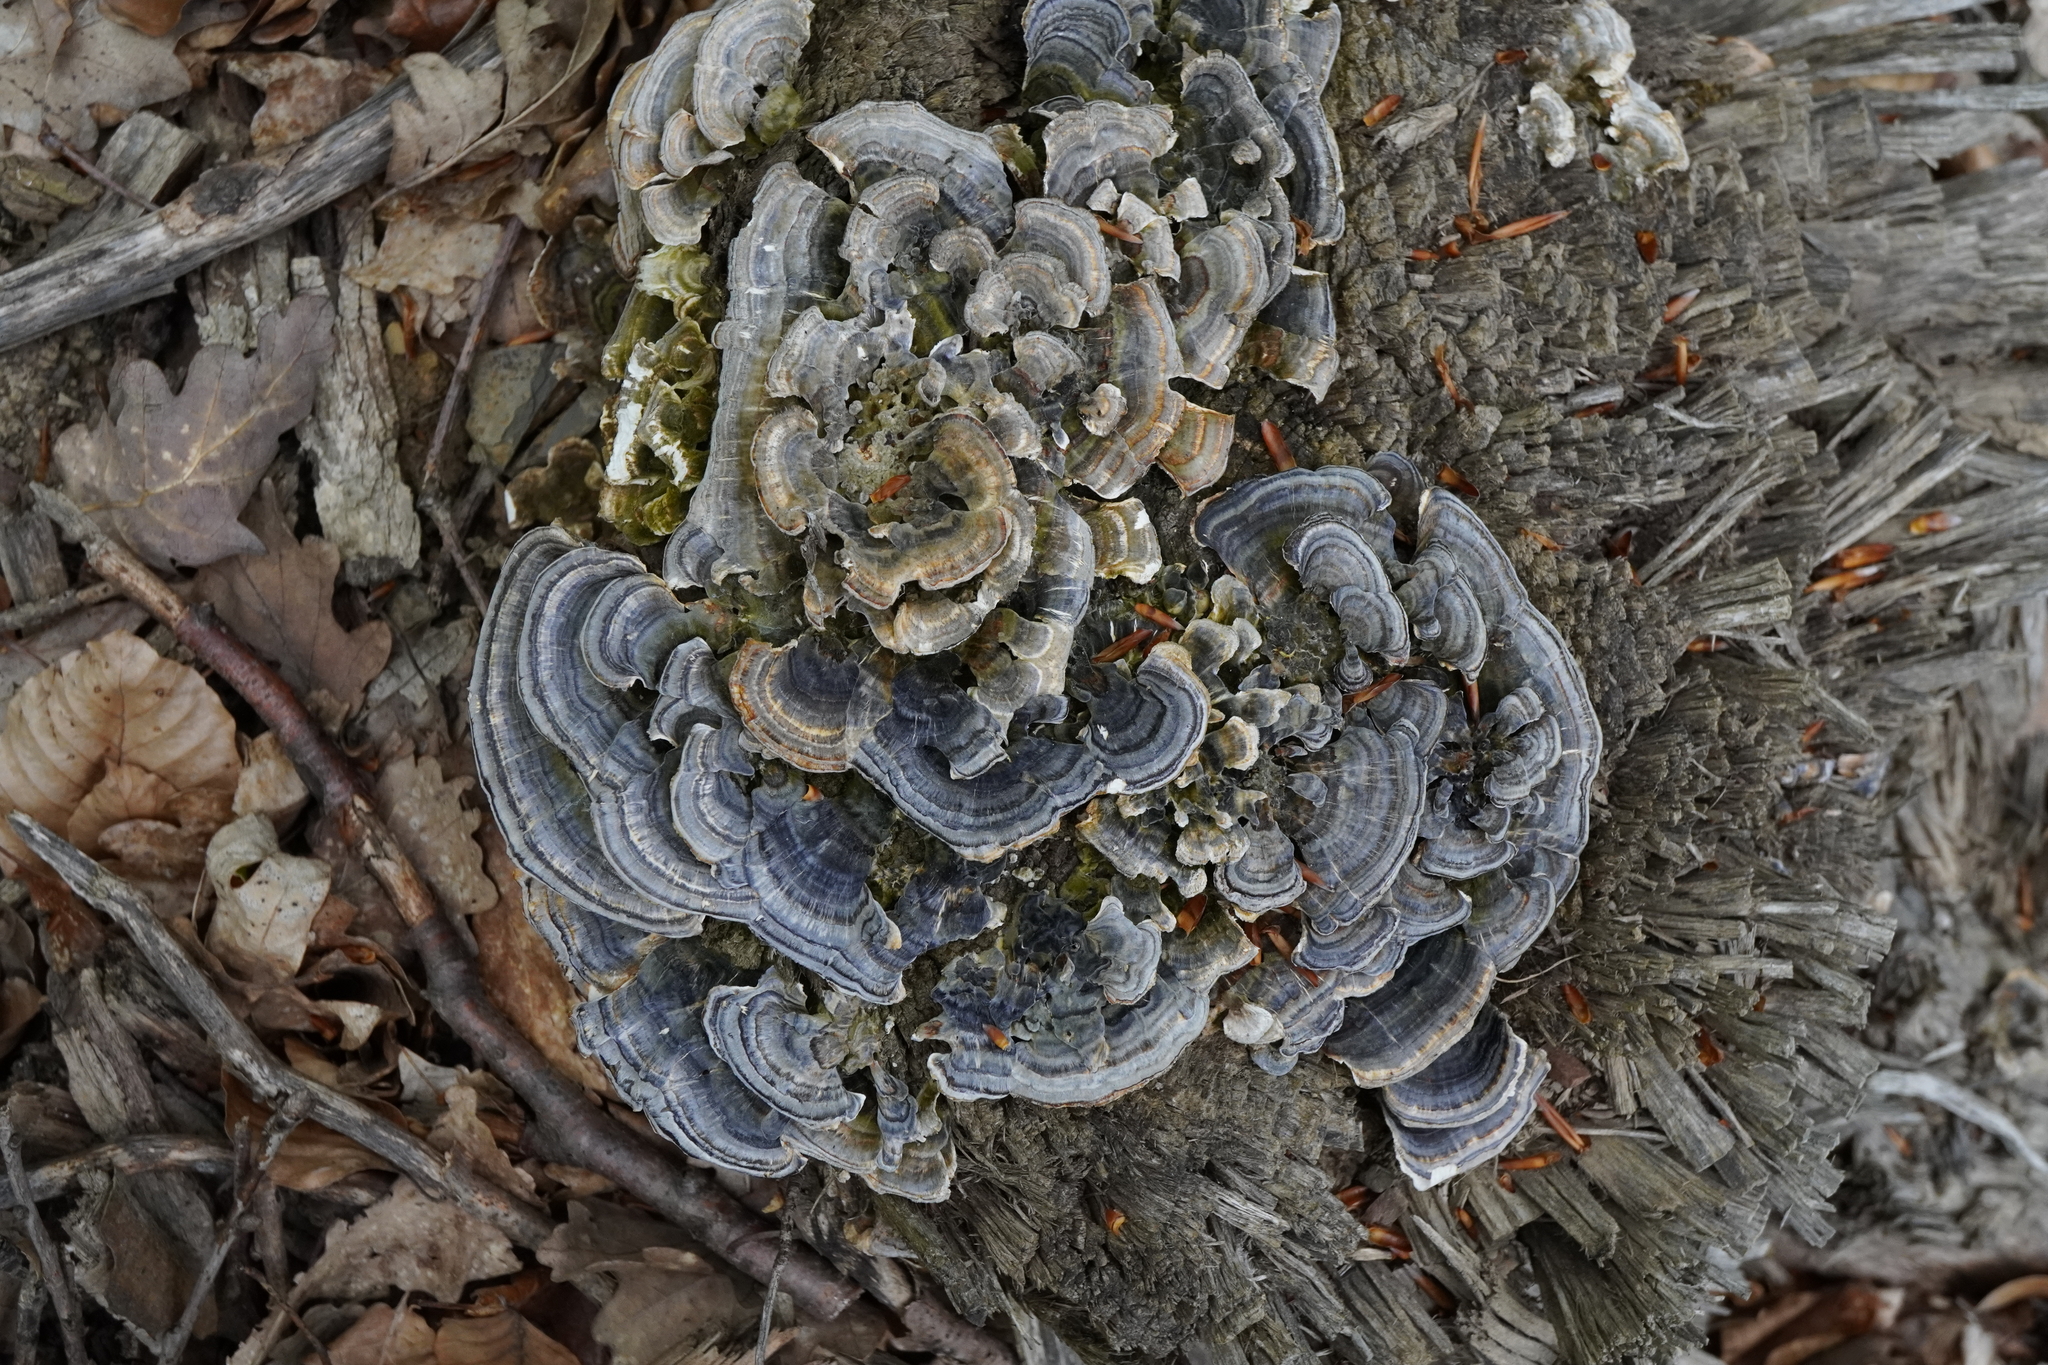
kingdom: Fungi
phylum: Basidiomycota
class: Agaricomycetes
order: Polyporales
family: Polyporaceae
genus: Trametes
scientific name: Trametes versicolor
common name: Turkeytail
